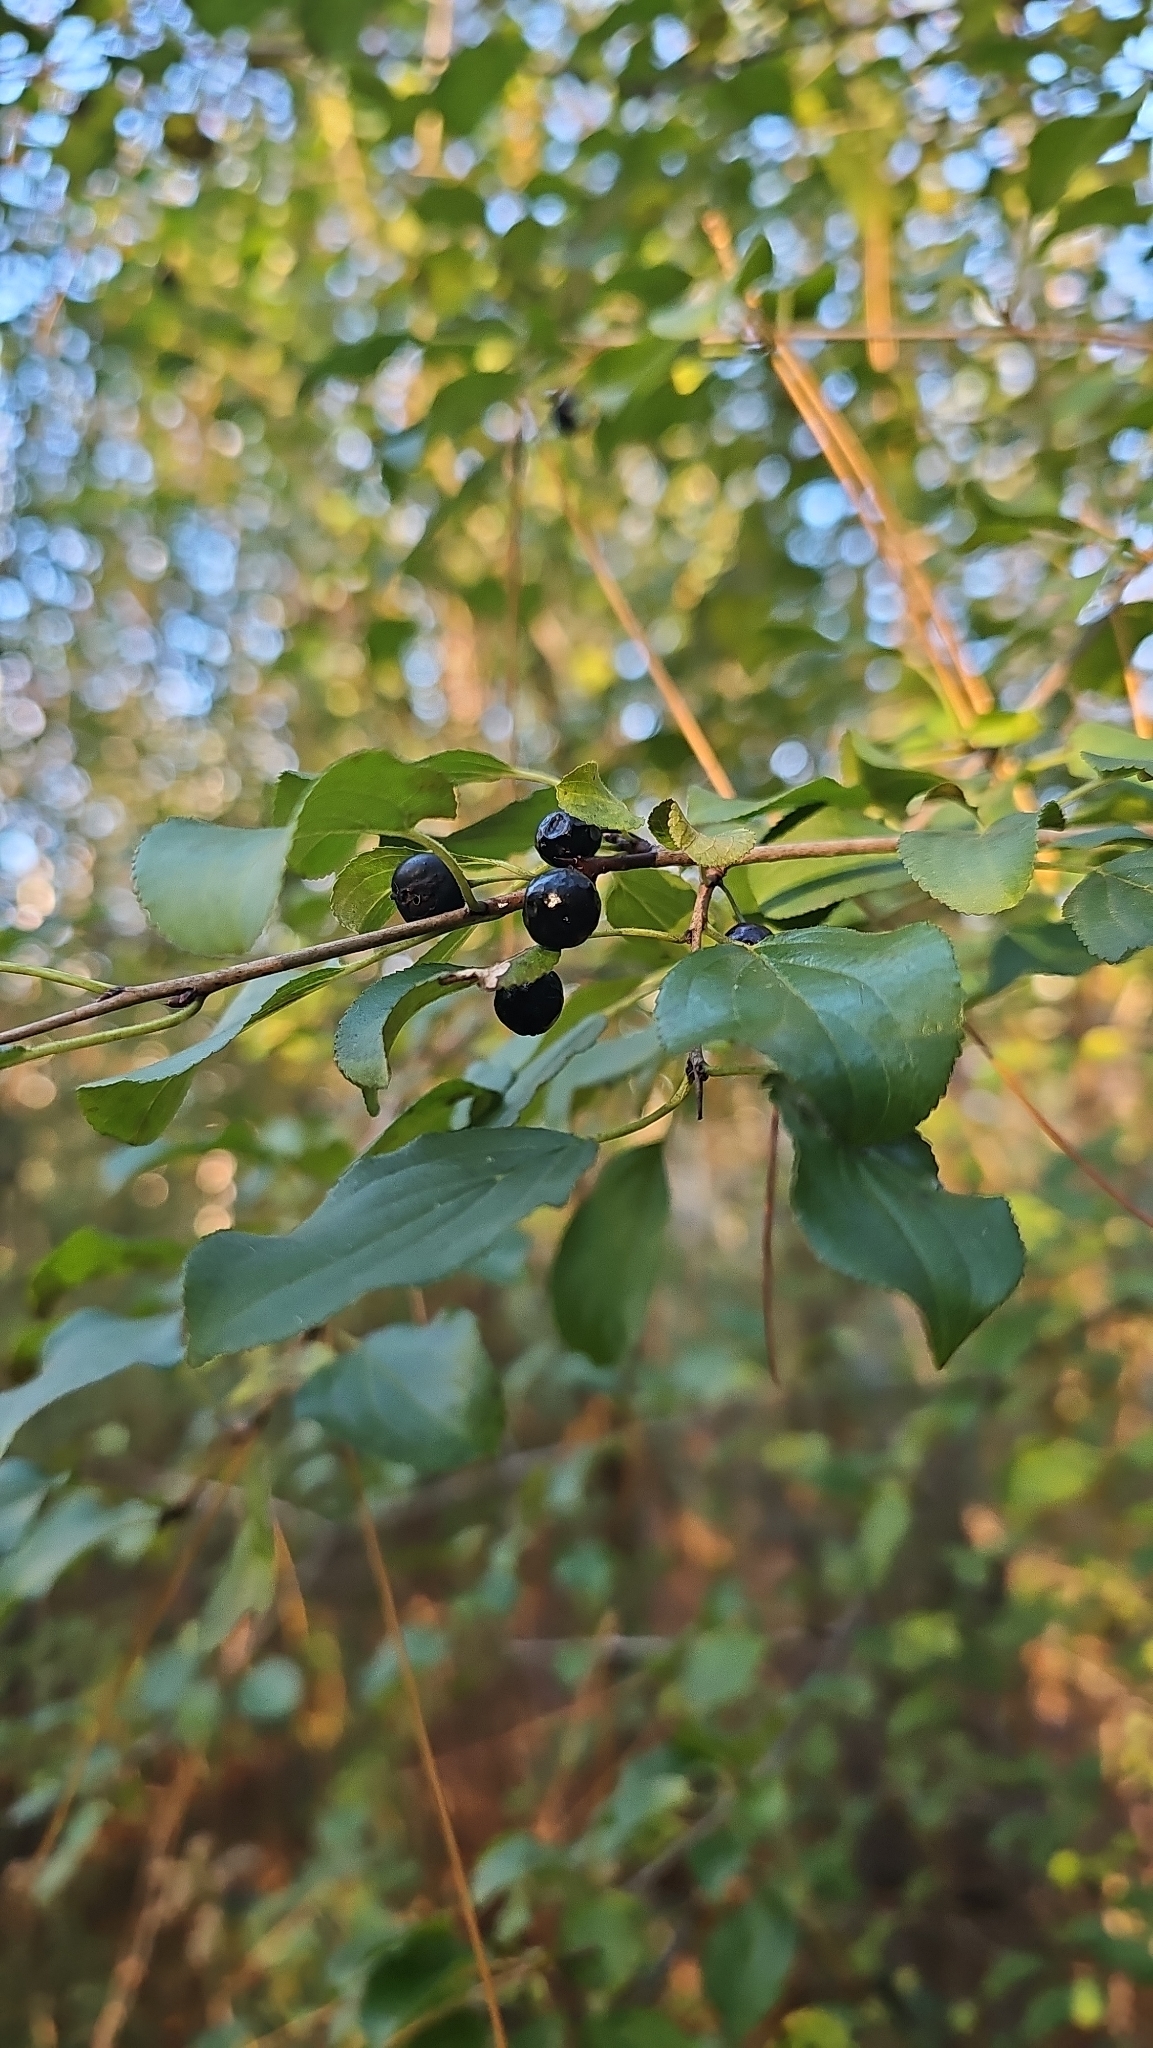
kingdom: Plantae
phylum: Tracheophyta
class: Magnoliopsida
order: Rosales
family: Rhamnaceae
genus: Rhamnus
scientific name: Rhamnus cathartica
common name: Common buckthorn
